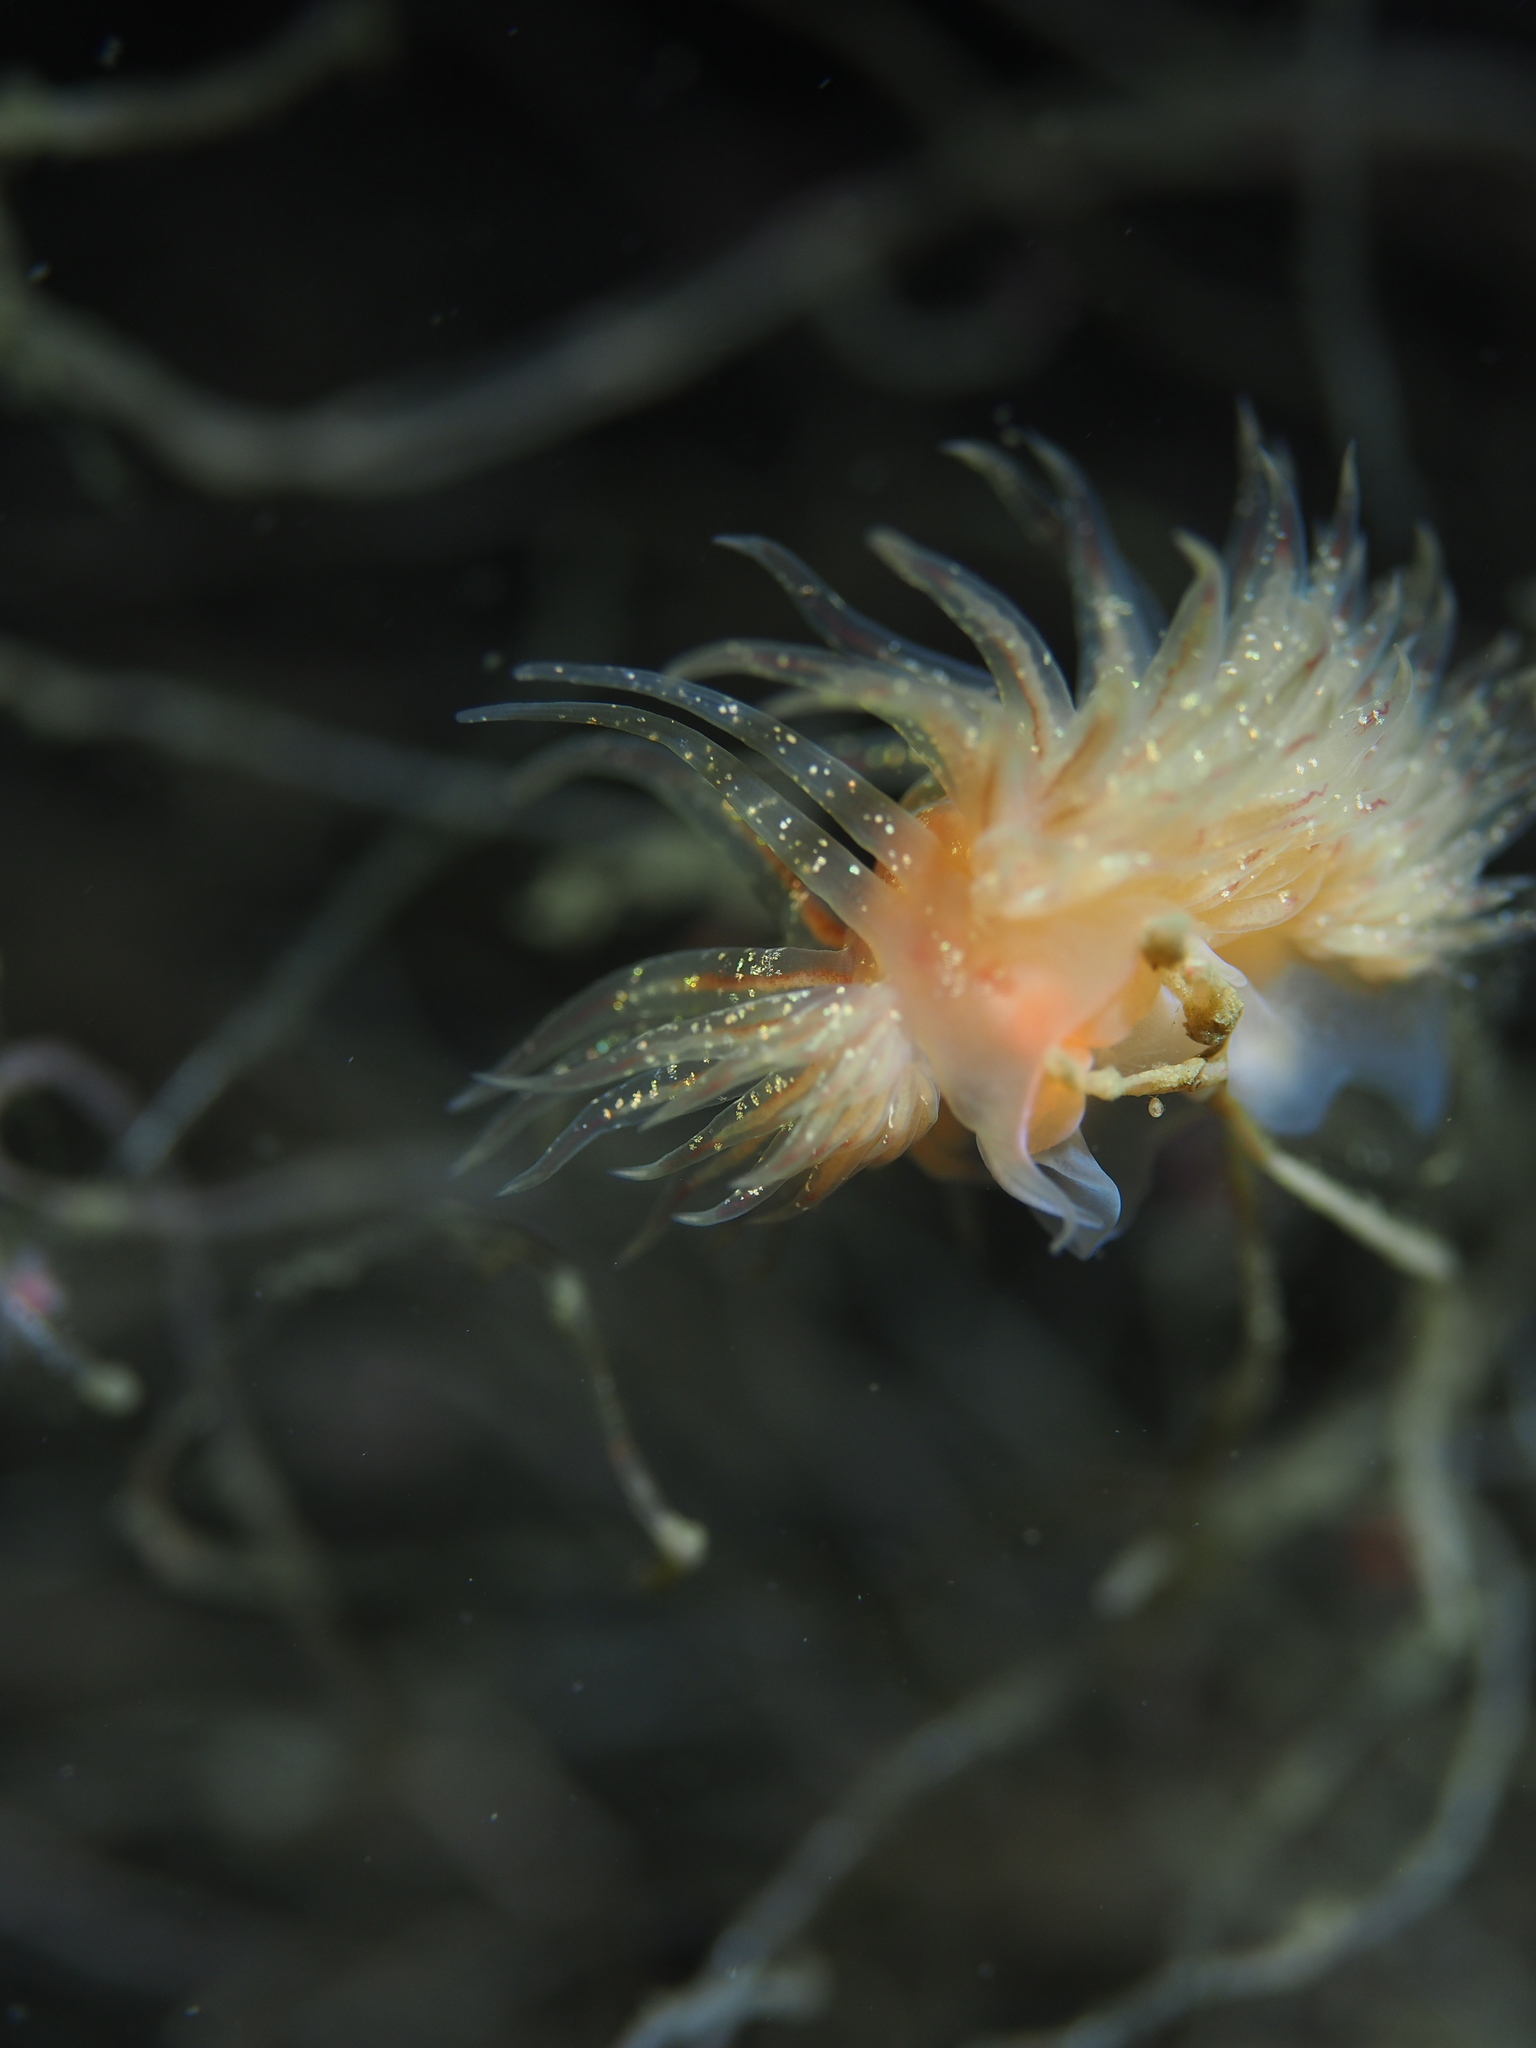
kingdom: Animalia
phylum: Mollusca
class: Gastropoda
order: Nudibranchia
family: Cumanotidae
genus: Cumanotus
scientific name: Cumanotus beaumonti
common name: Polyp aeolis
